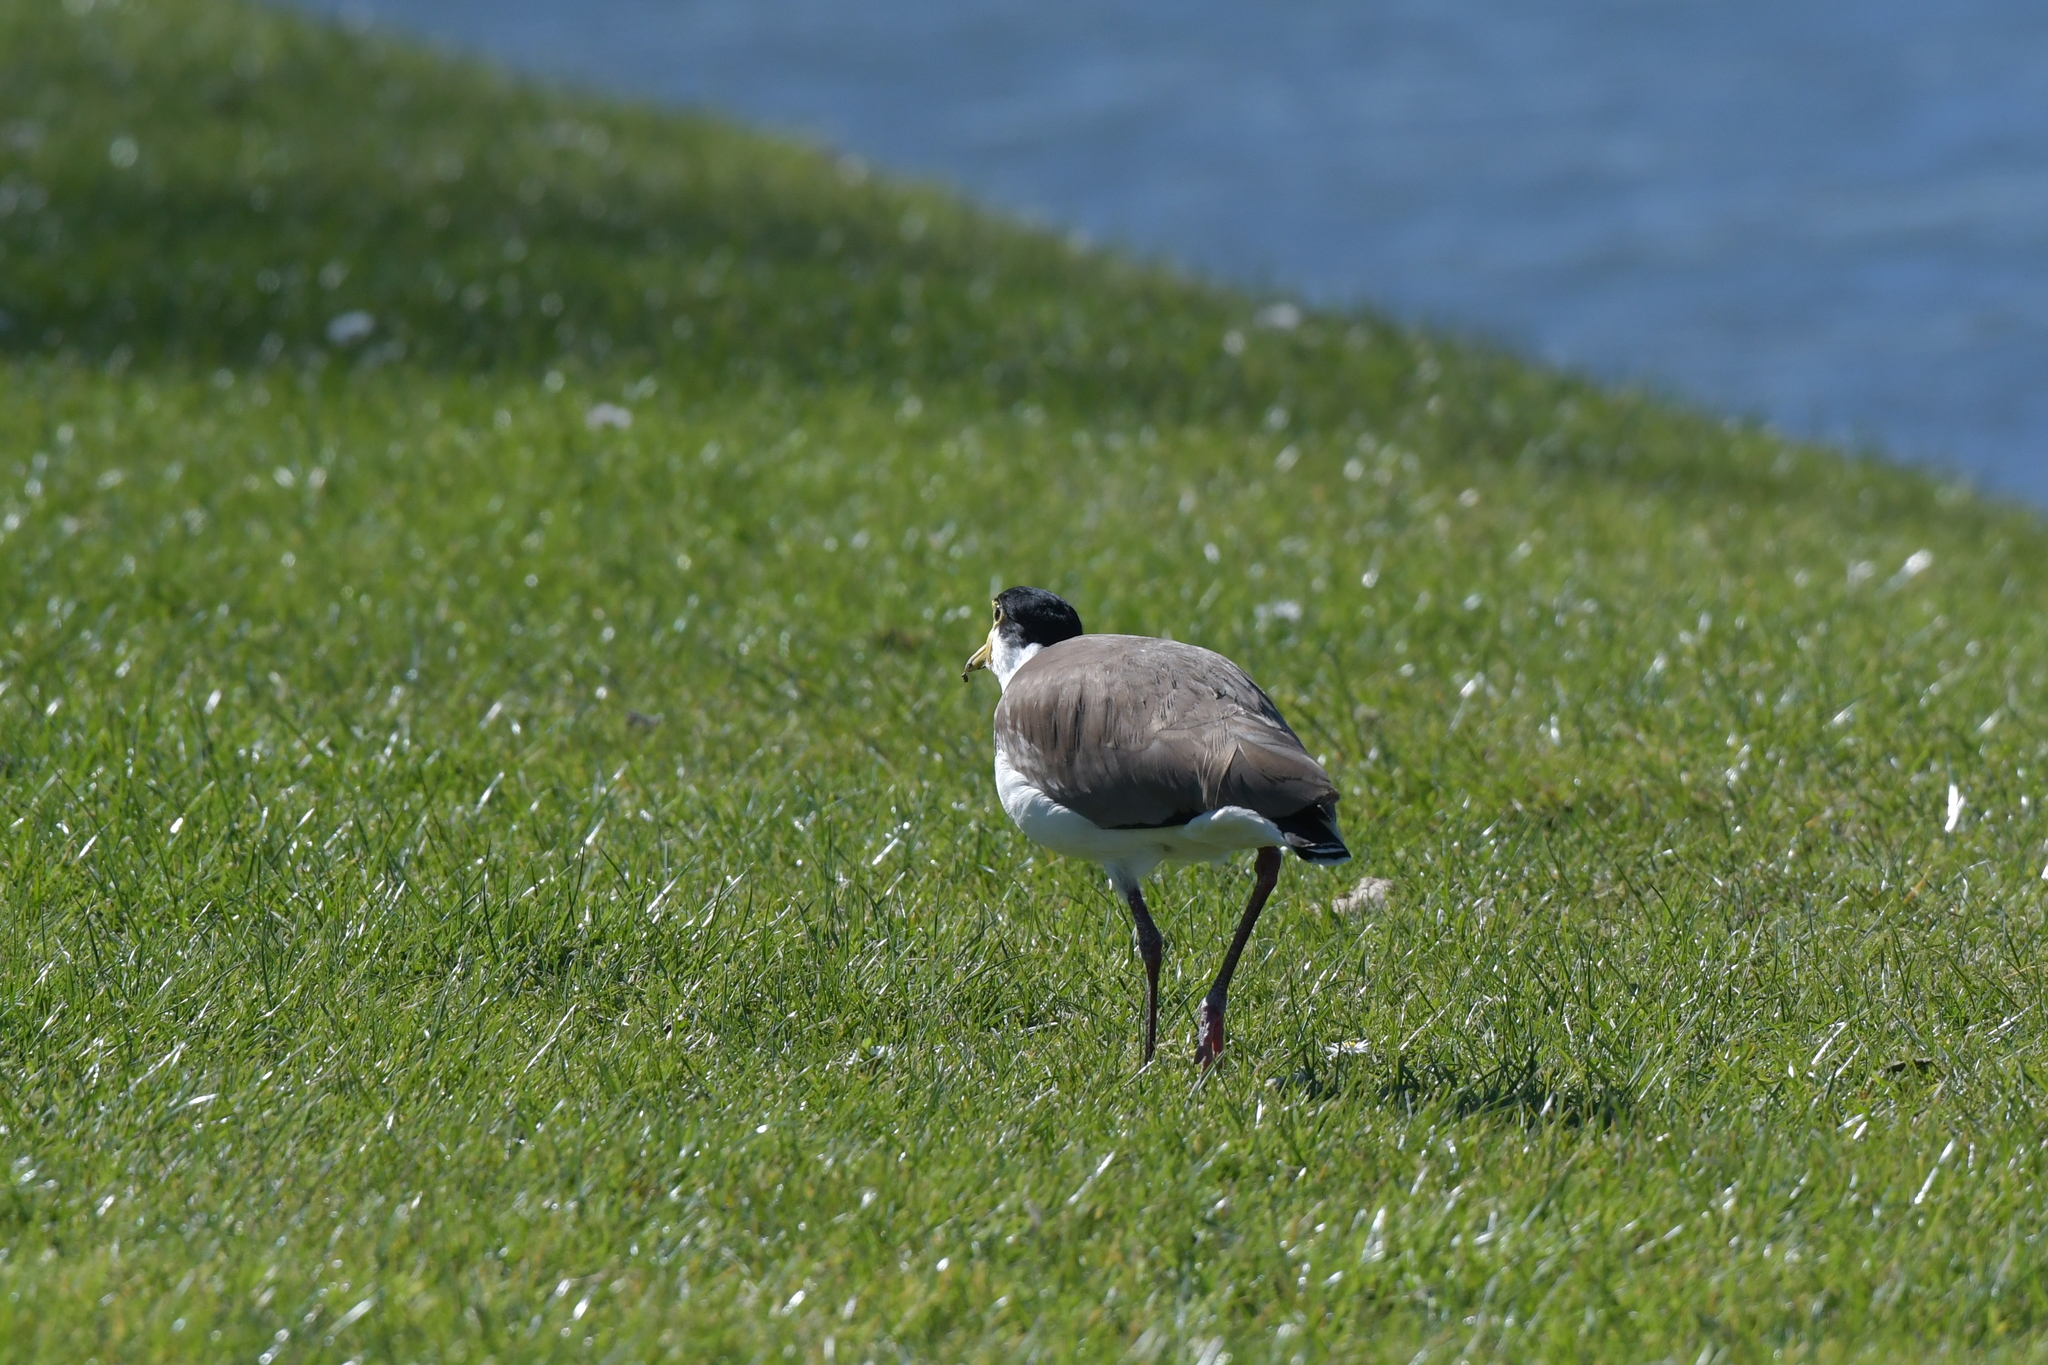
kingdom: Animalia
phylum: Chordata
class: Aves
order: Charadriiformes
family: Charadriidae
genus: Vanellus
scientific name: Vanellus miles
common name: Masked lapwing
